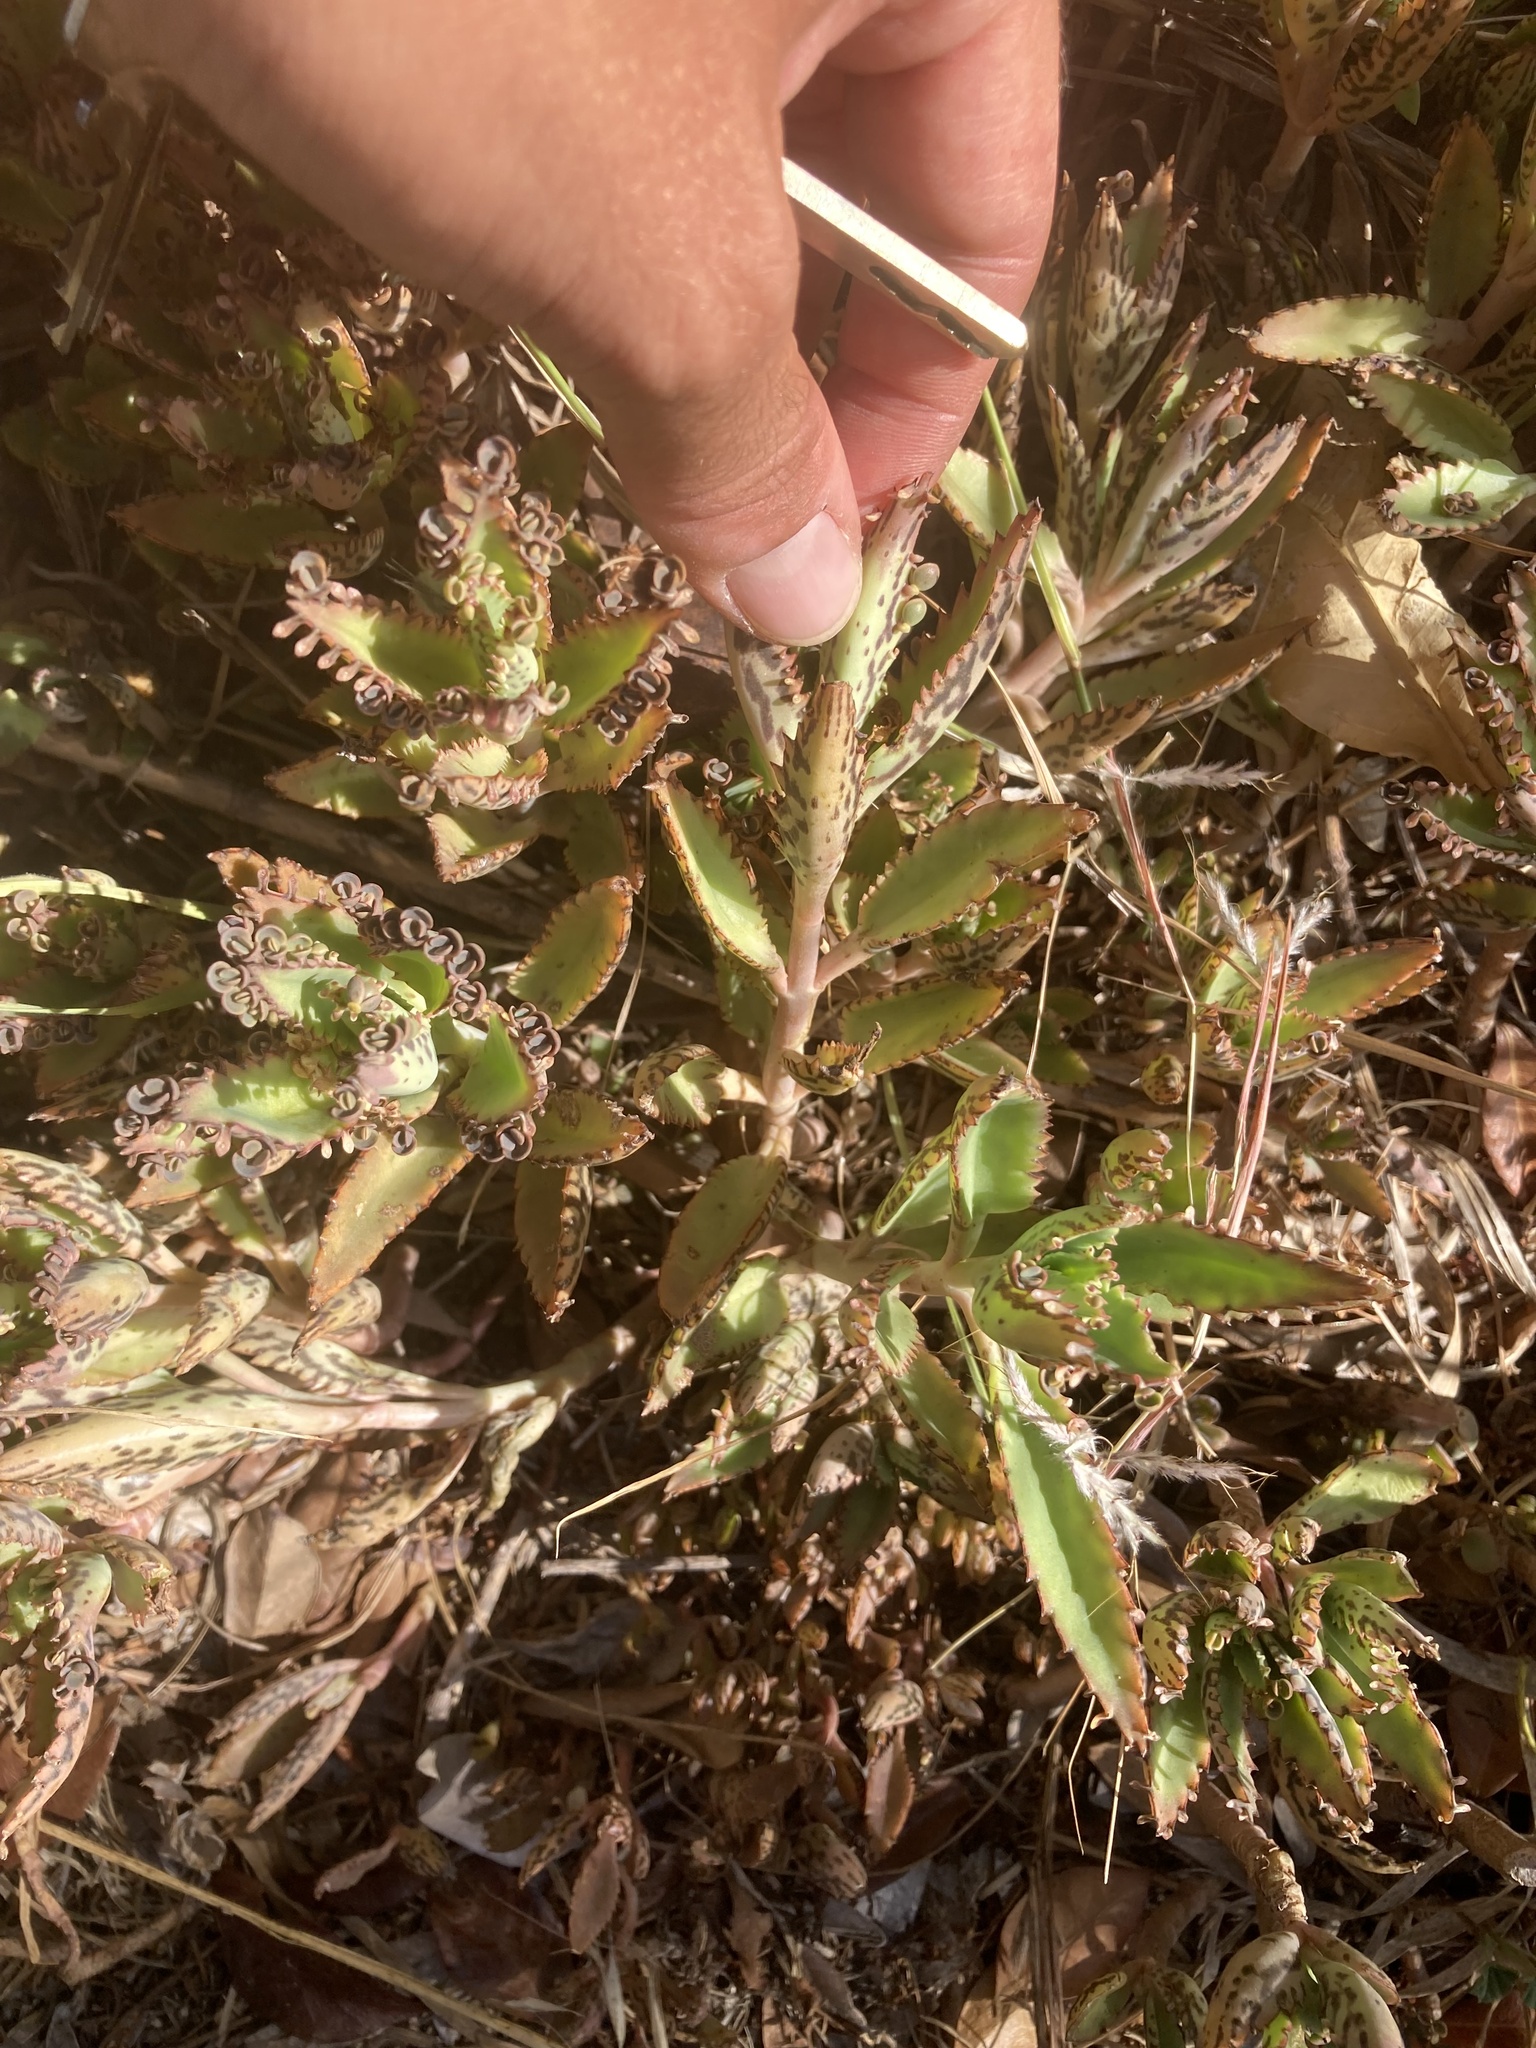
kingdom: Plantae
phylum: Tracheophyta
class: Magnoliopsida
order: Saxifragales
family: Crassulaceae
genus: Kalanchoe
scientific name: Kalanchoe houghtonii
